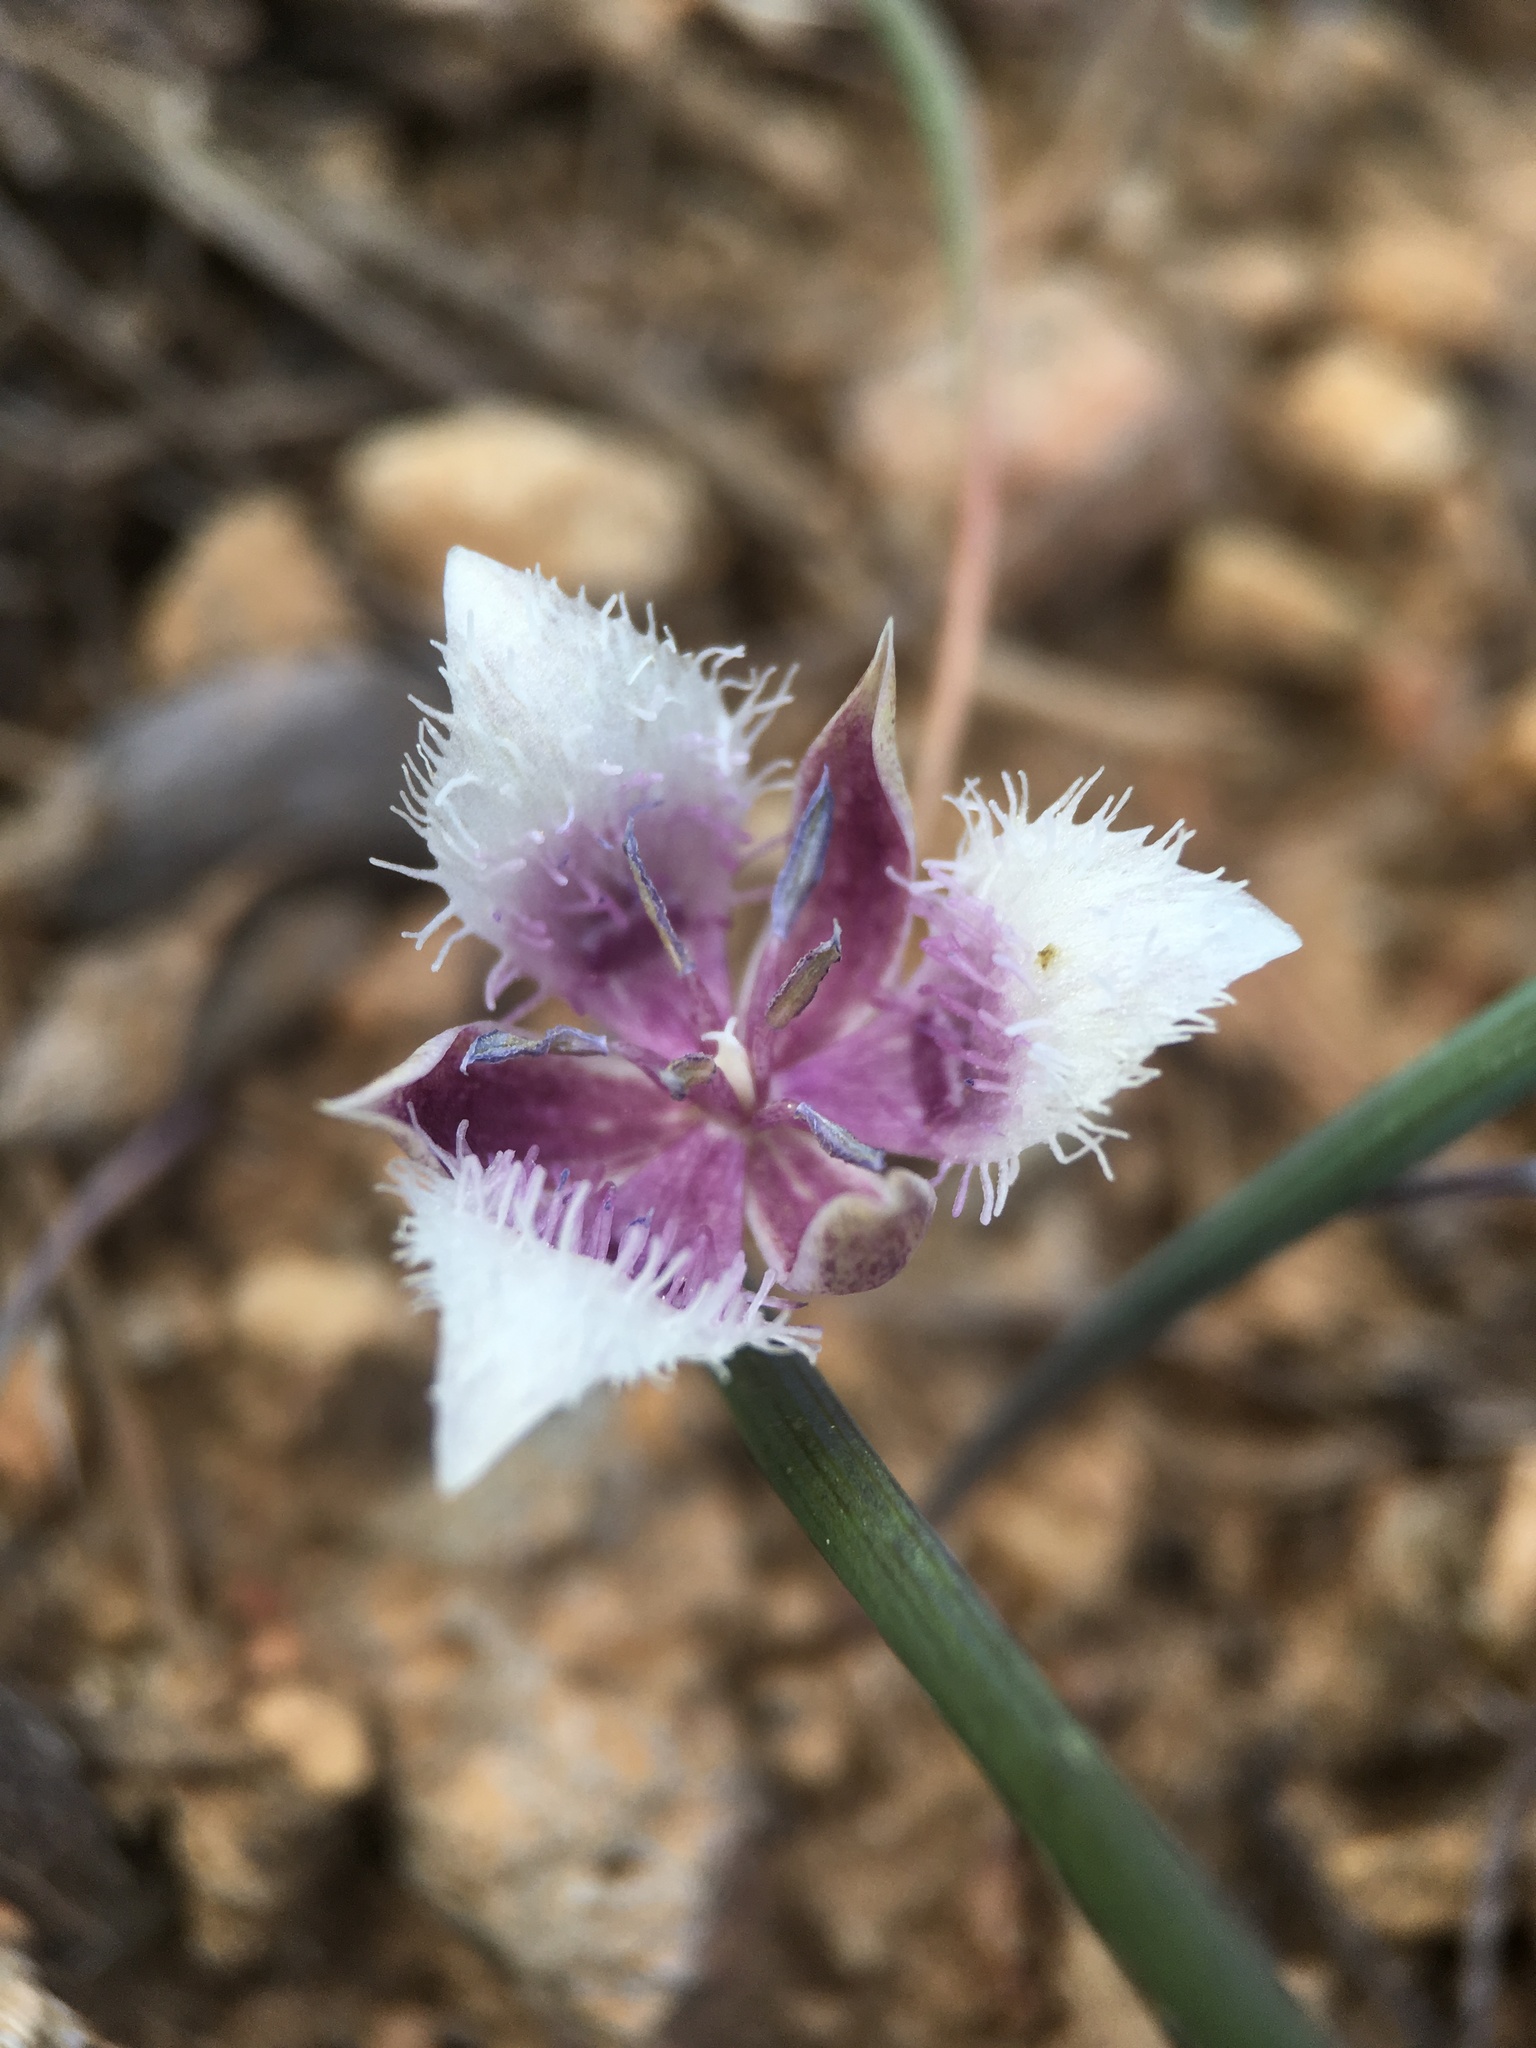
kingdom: Plantae
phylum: Tracheophyta
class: Liliopsida
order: Liliales
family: Liliaceae
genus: Calochortus
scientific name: Calochortus elegans
